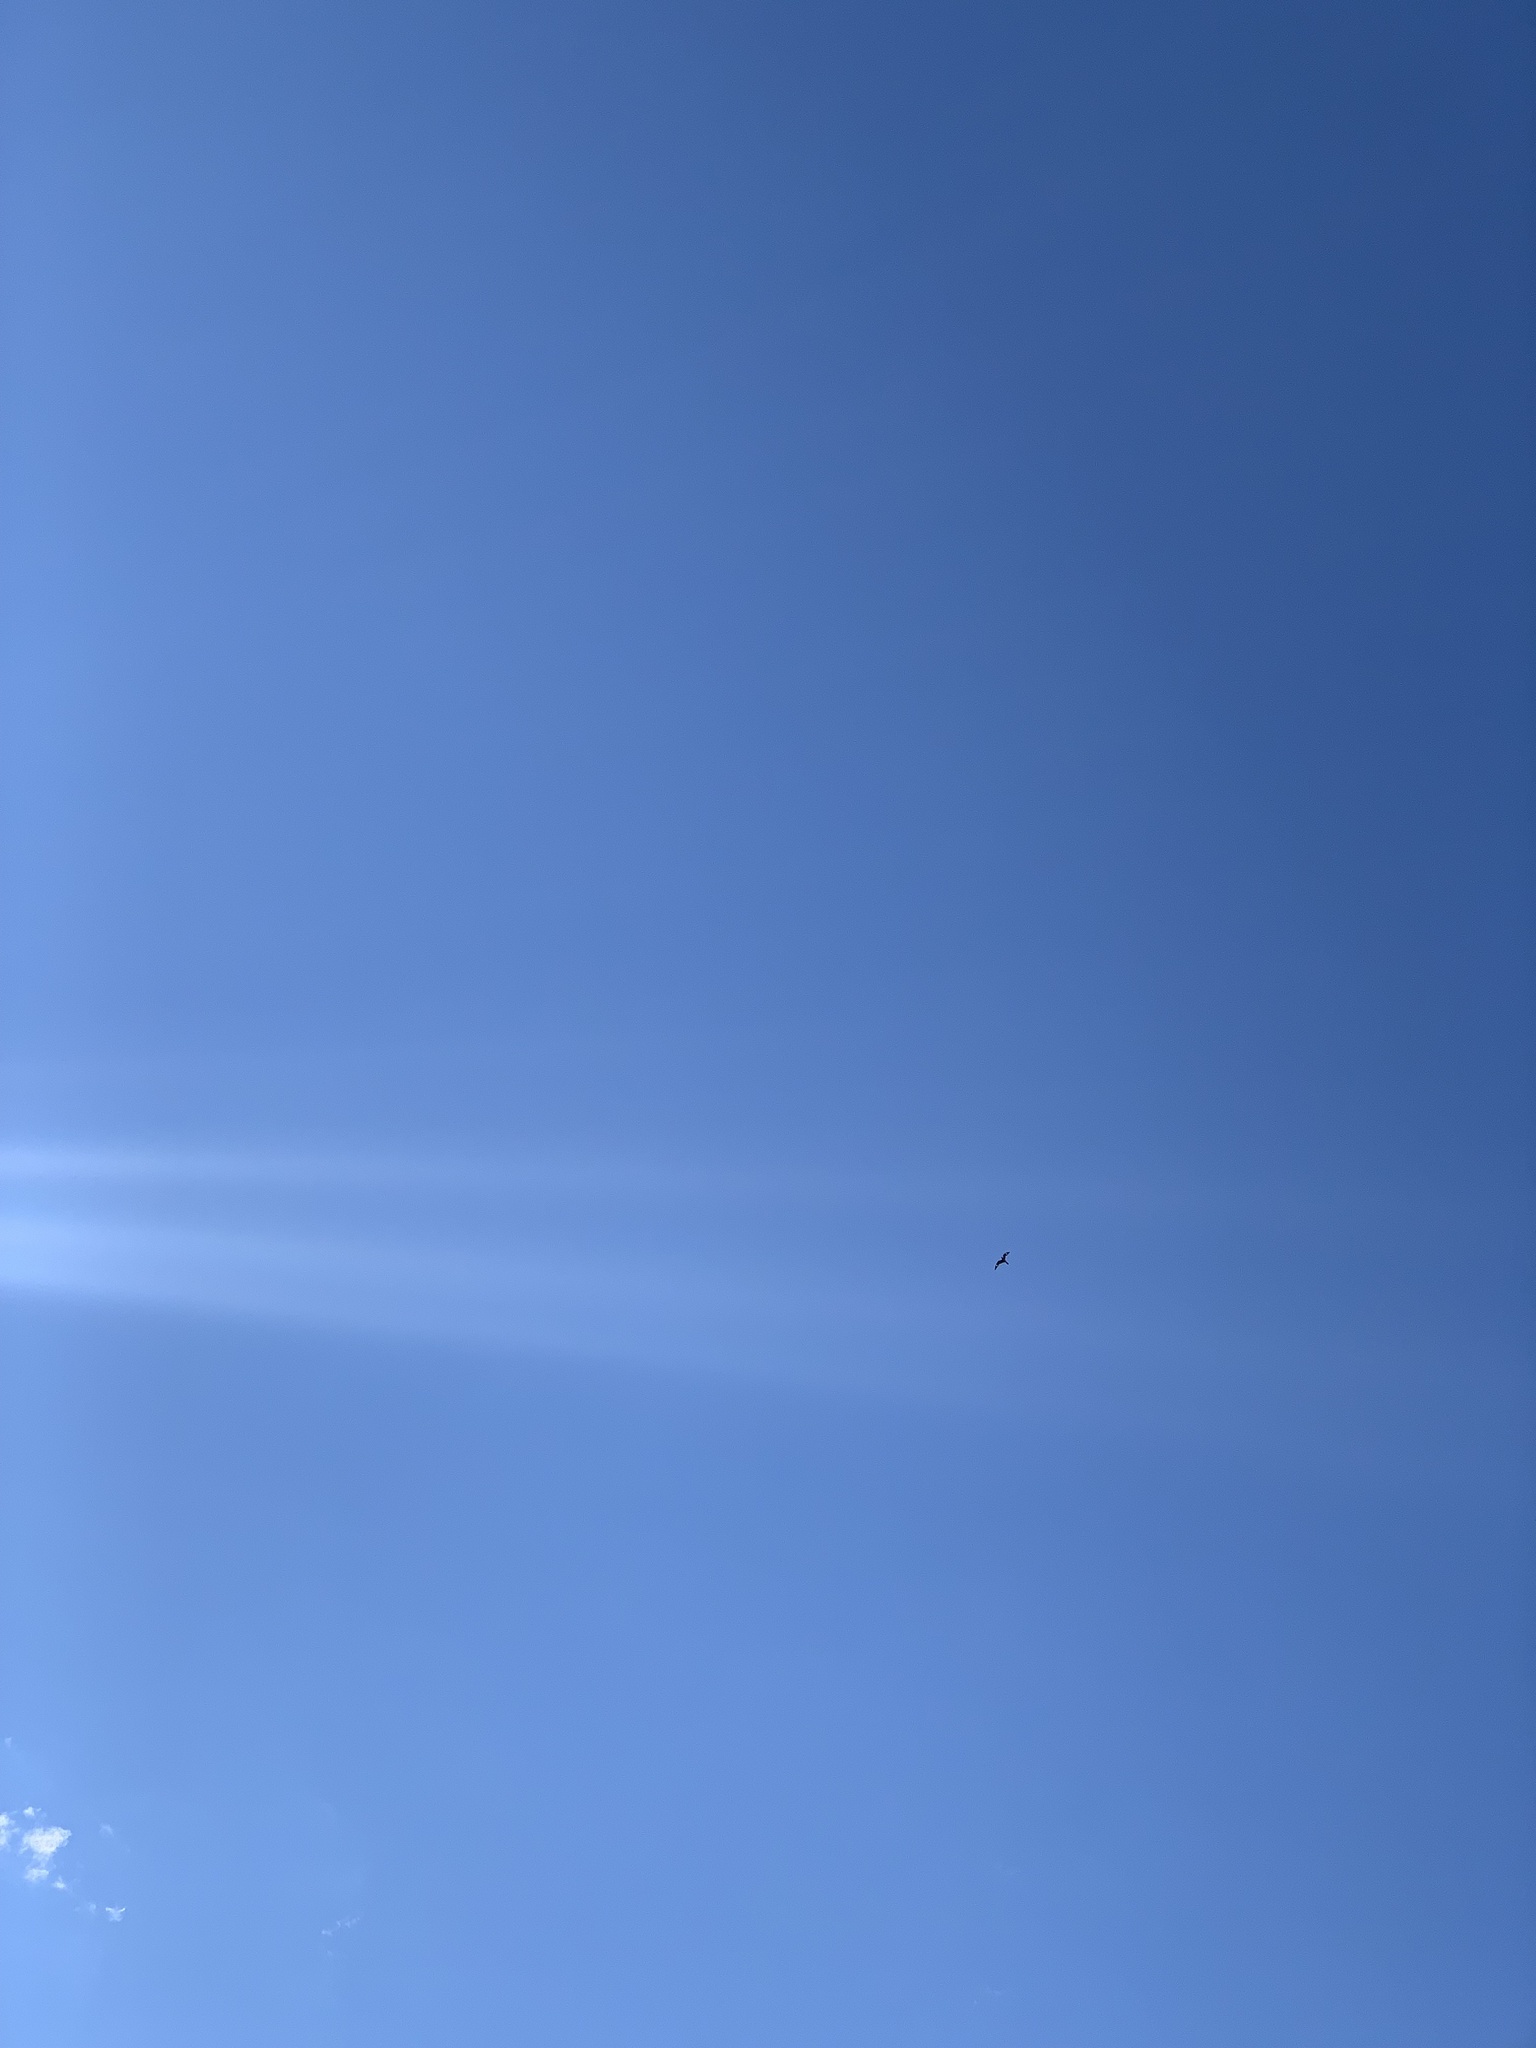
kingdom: Animalia
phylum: Chordata
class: Aves
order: Caprimulgiformes
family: Caprimulgidae
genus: Chordeiles
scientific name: Chordeiles minor
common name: Common nighthawk
